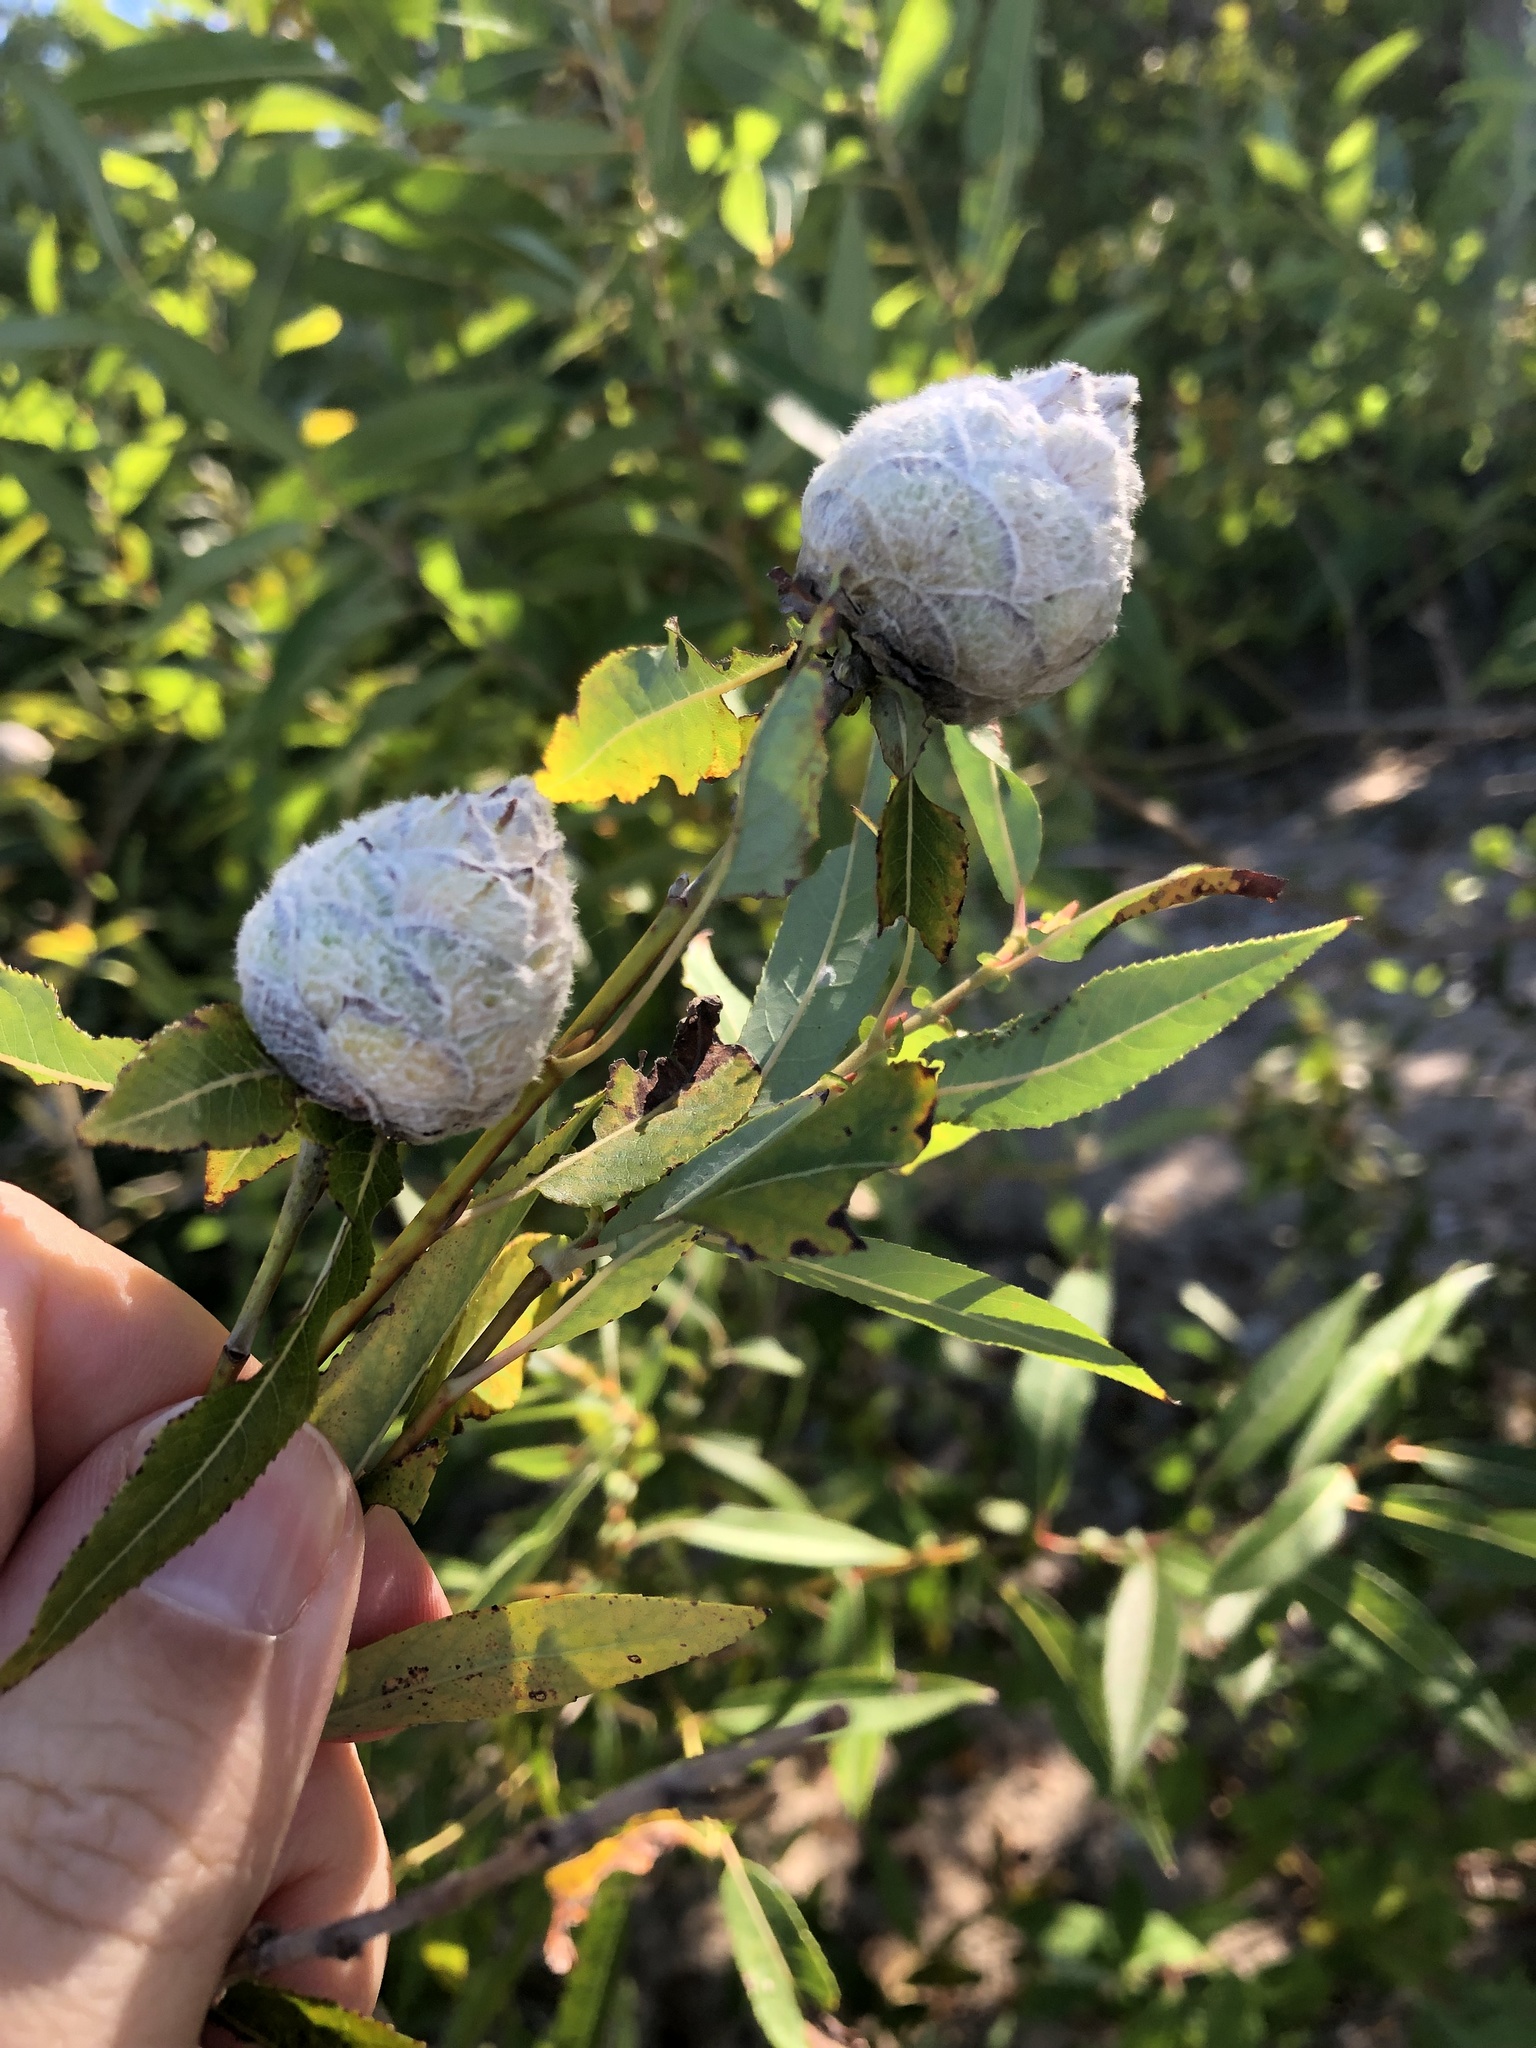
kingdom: Animalia
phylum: Arthropoda
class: Insecta
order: Diptera
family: Cecidomyiidae
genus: Rabdophaga
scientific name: Rabdophaga strobiloides
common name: Willow pinecone gall midge
